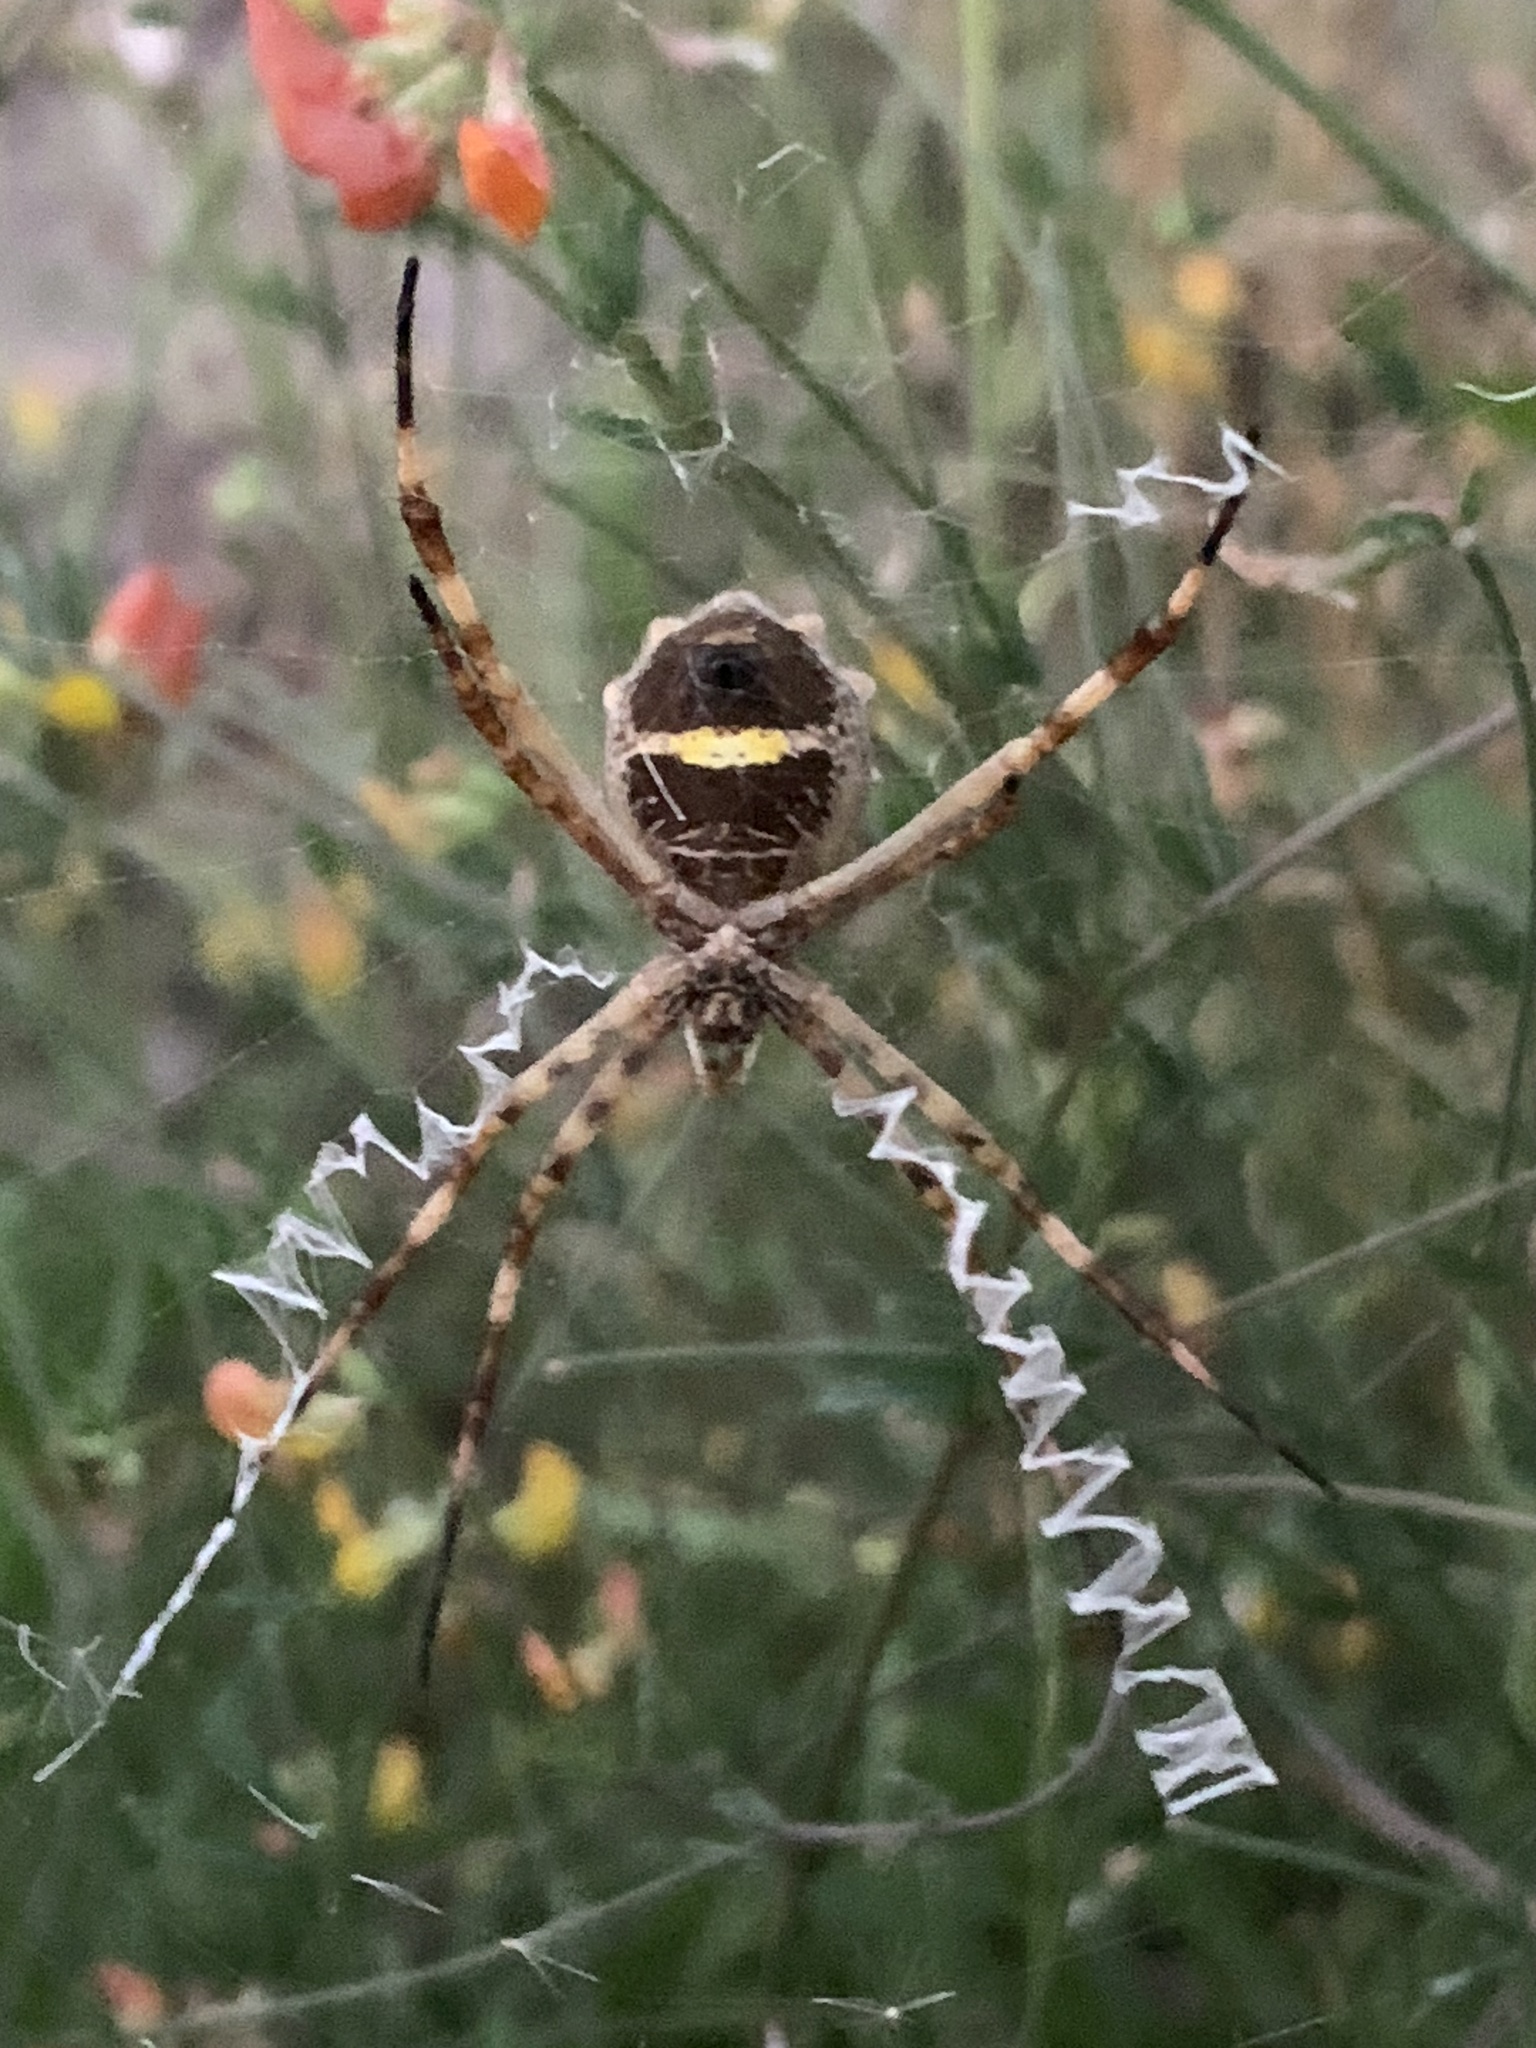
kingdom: Animalia
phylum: Arthropoda
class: Arachnida
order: Araneae
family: Araneidae
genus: Argiope
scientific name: Argiope argentata
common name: Orb weavers
